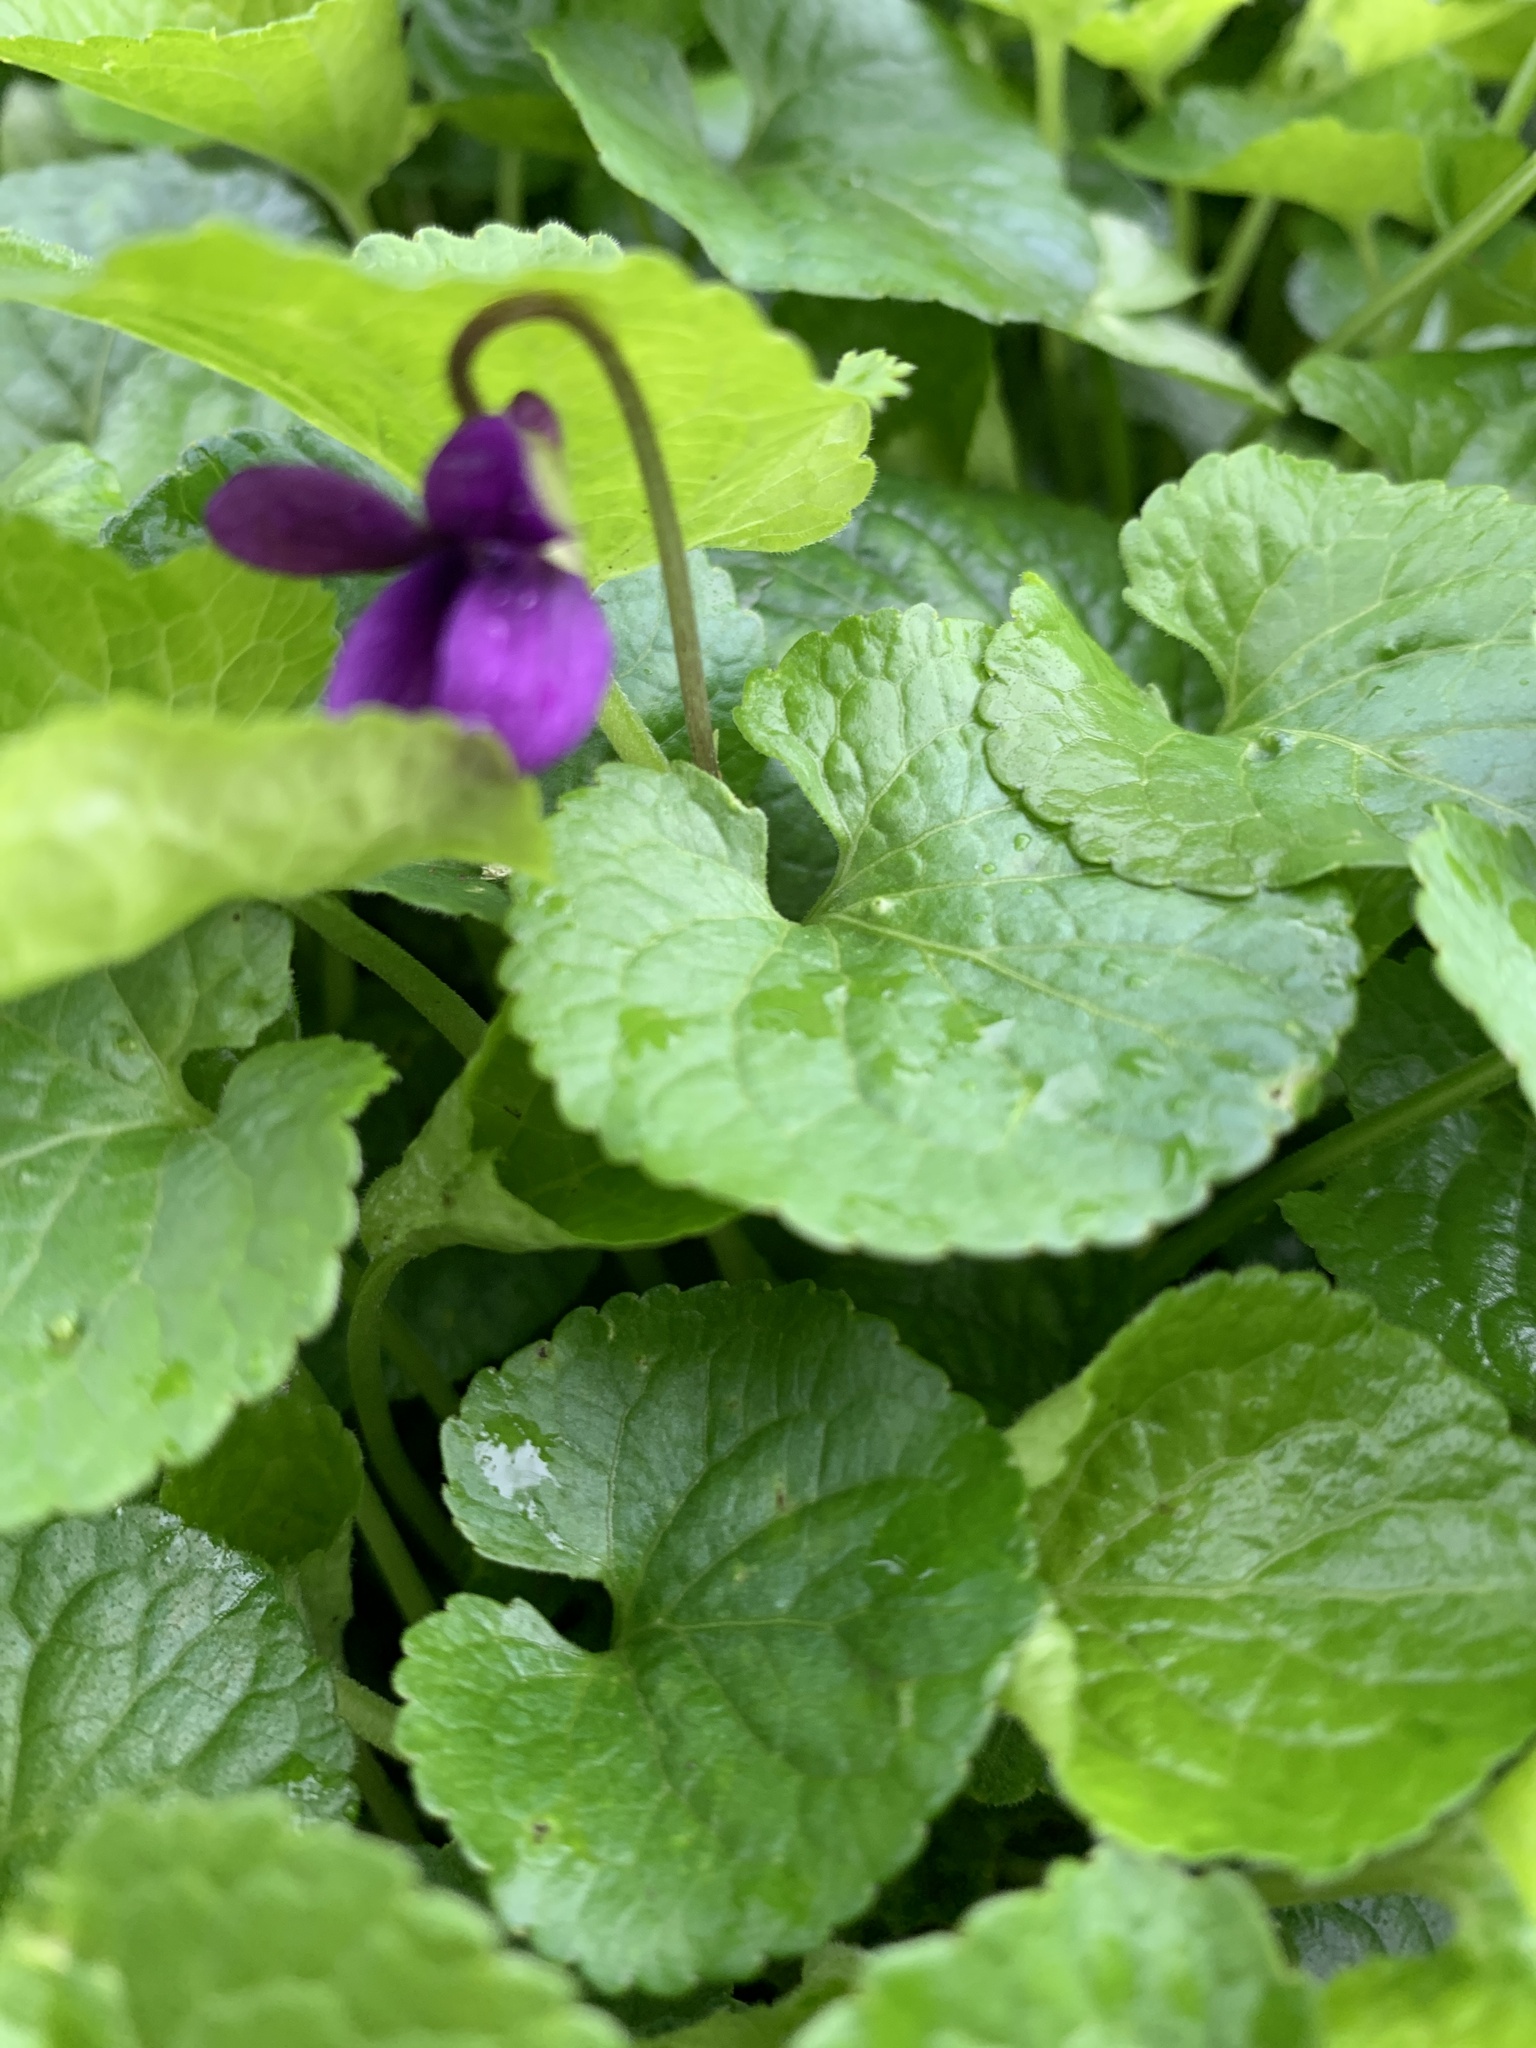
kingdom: Plantae
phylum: Tracheophyta
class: Magnoliopsida
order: Malpighiales
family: Violaceae
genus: Viola
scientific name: Viola odorata
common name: Sweet violet
